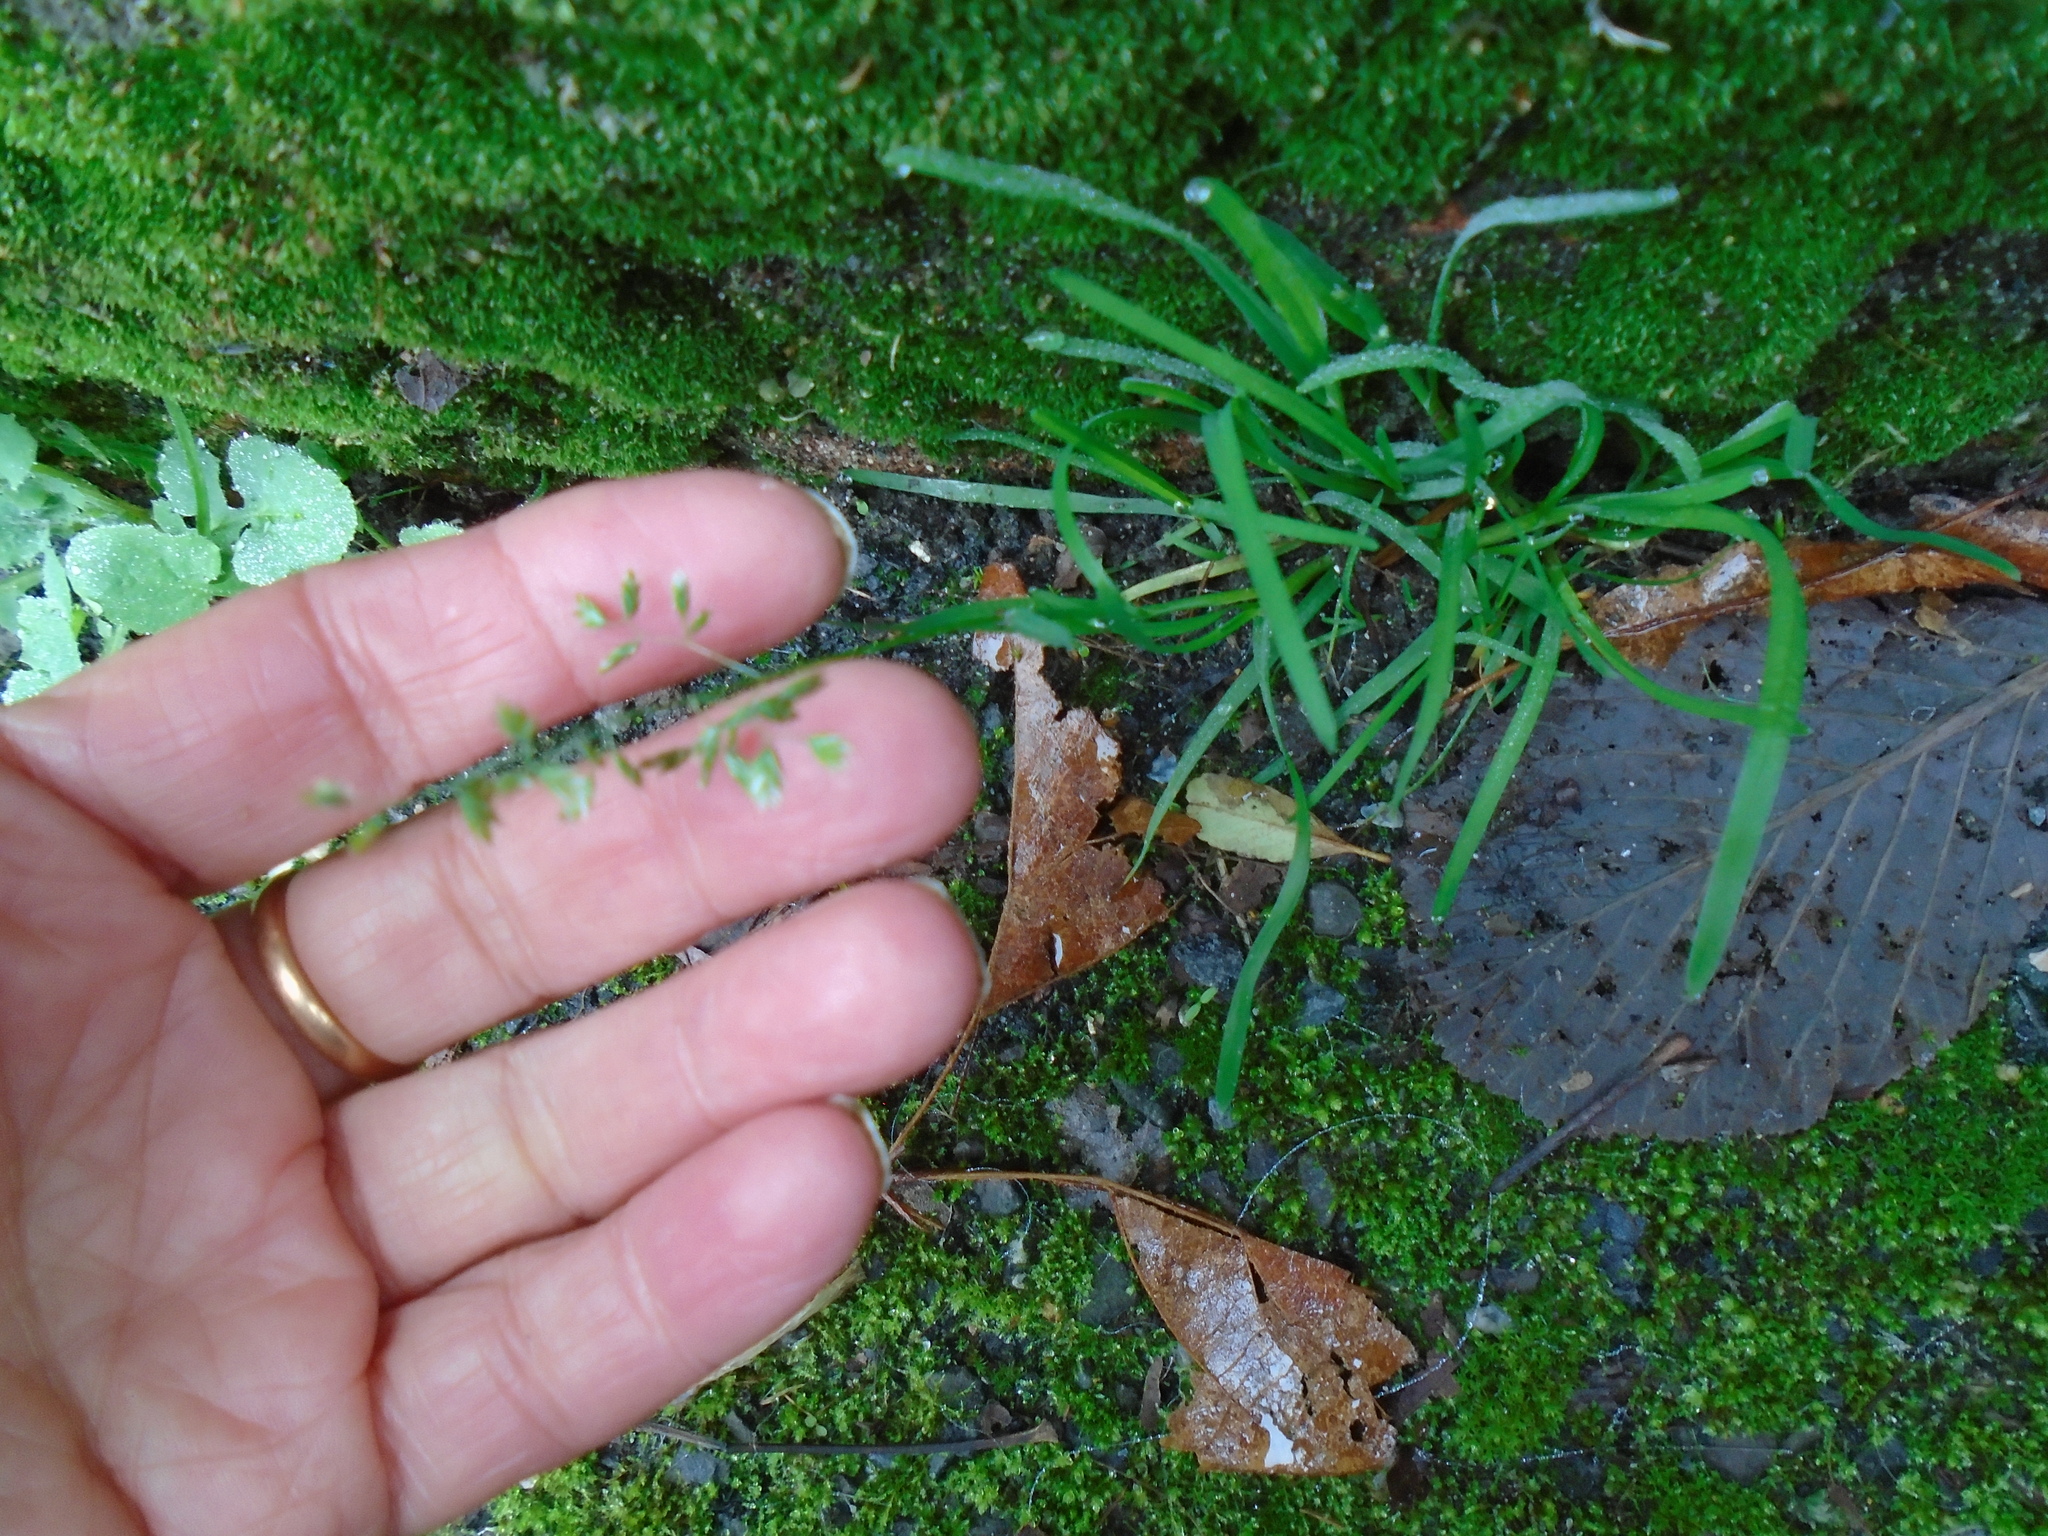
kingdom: Plantae
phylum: Tracheophyta
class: Liliopsida
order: Poales
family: Poaceae
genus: Poa
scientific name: Poa annua
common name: Annual bluegrass
